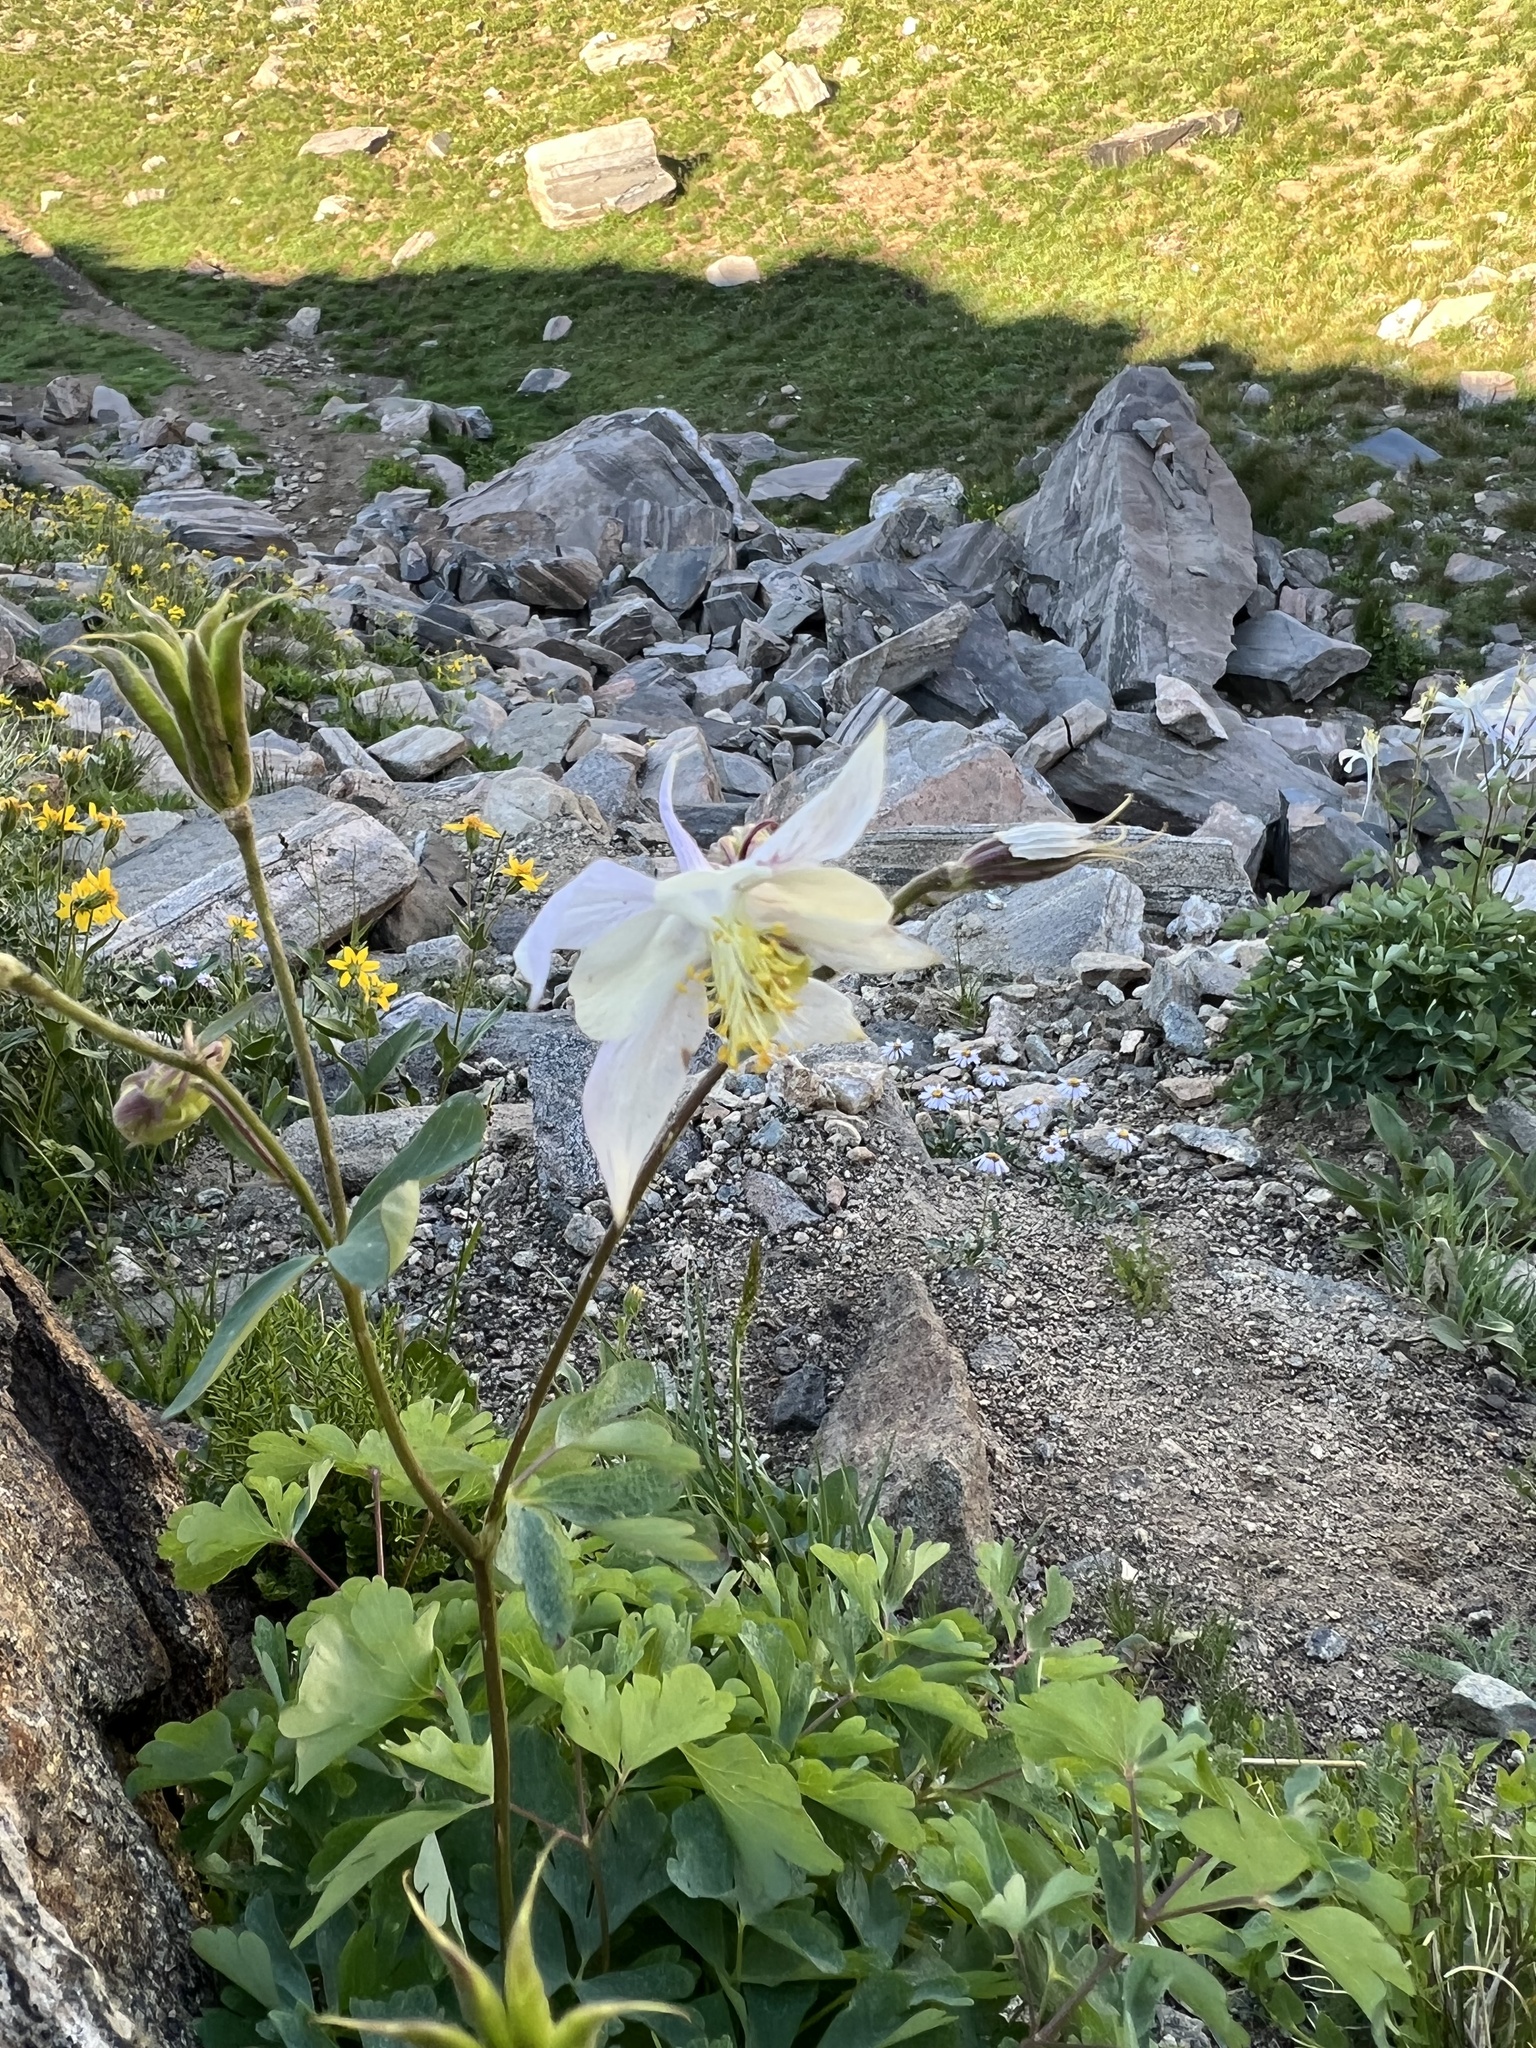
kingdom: Plantae
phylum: Tracheophyta
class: Magnoliopsida
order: Ranunculales
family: Ranunculaceae
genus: Aquilegia
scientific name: Aquilegia coerulea
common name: Rocky mountain columbine
